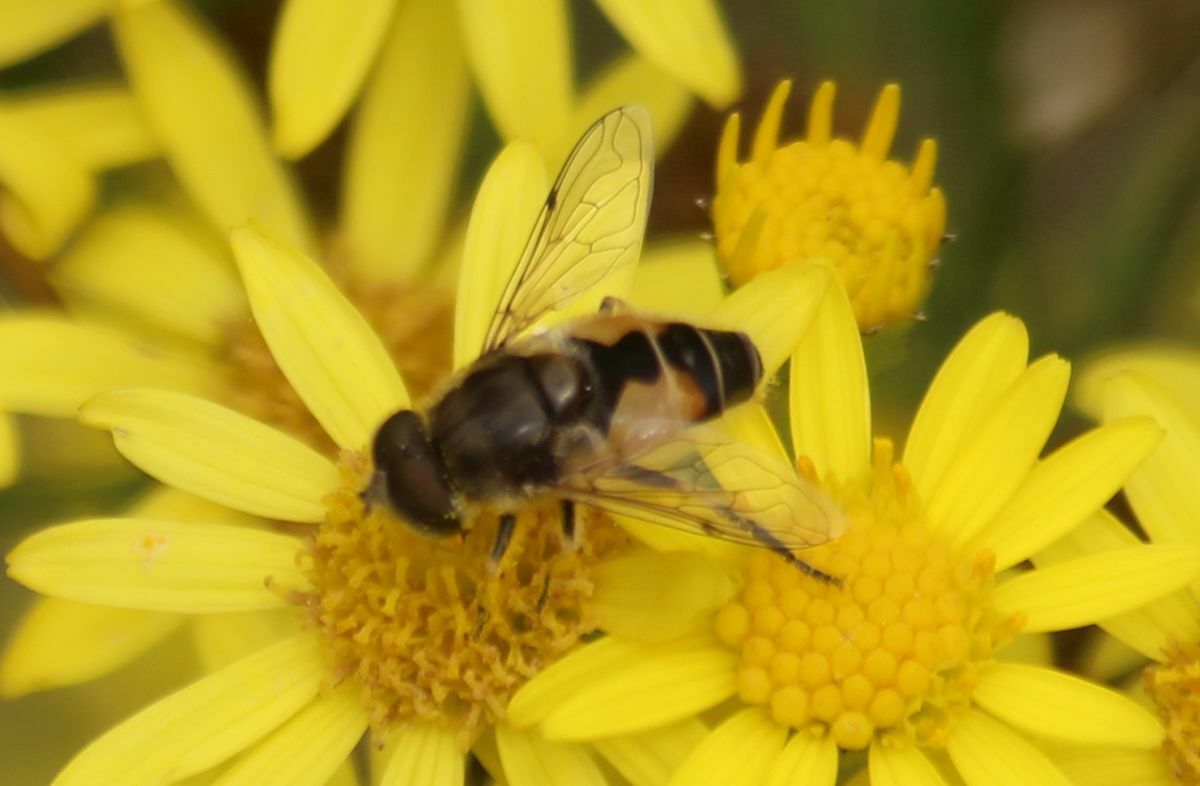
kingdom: Animalia
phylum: Arthropoda
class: Insecta
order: Diptera
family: Syrphidae
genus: Eristalis
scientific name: Eristalis arbustorum
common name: Hover fly
